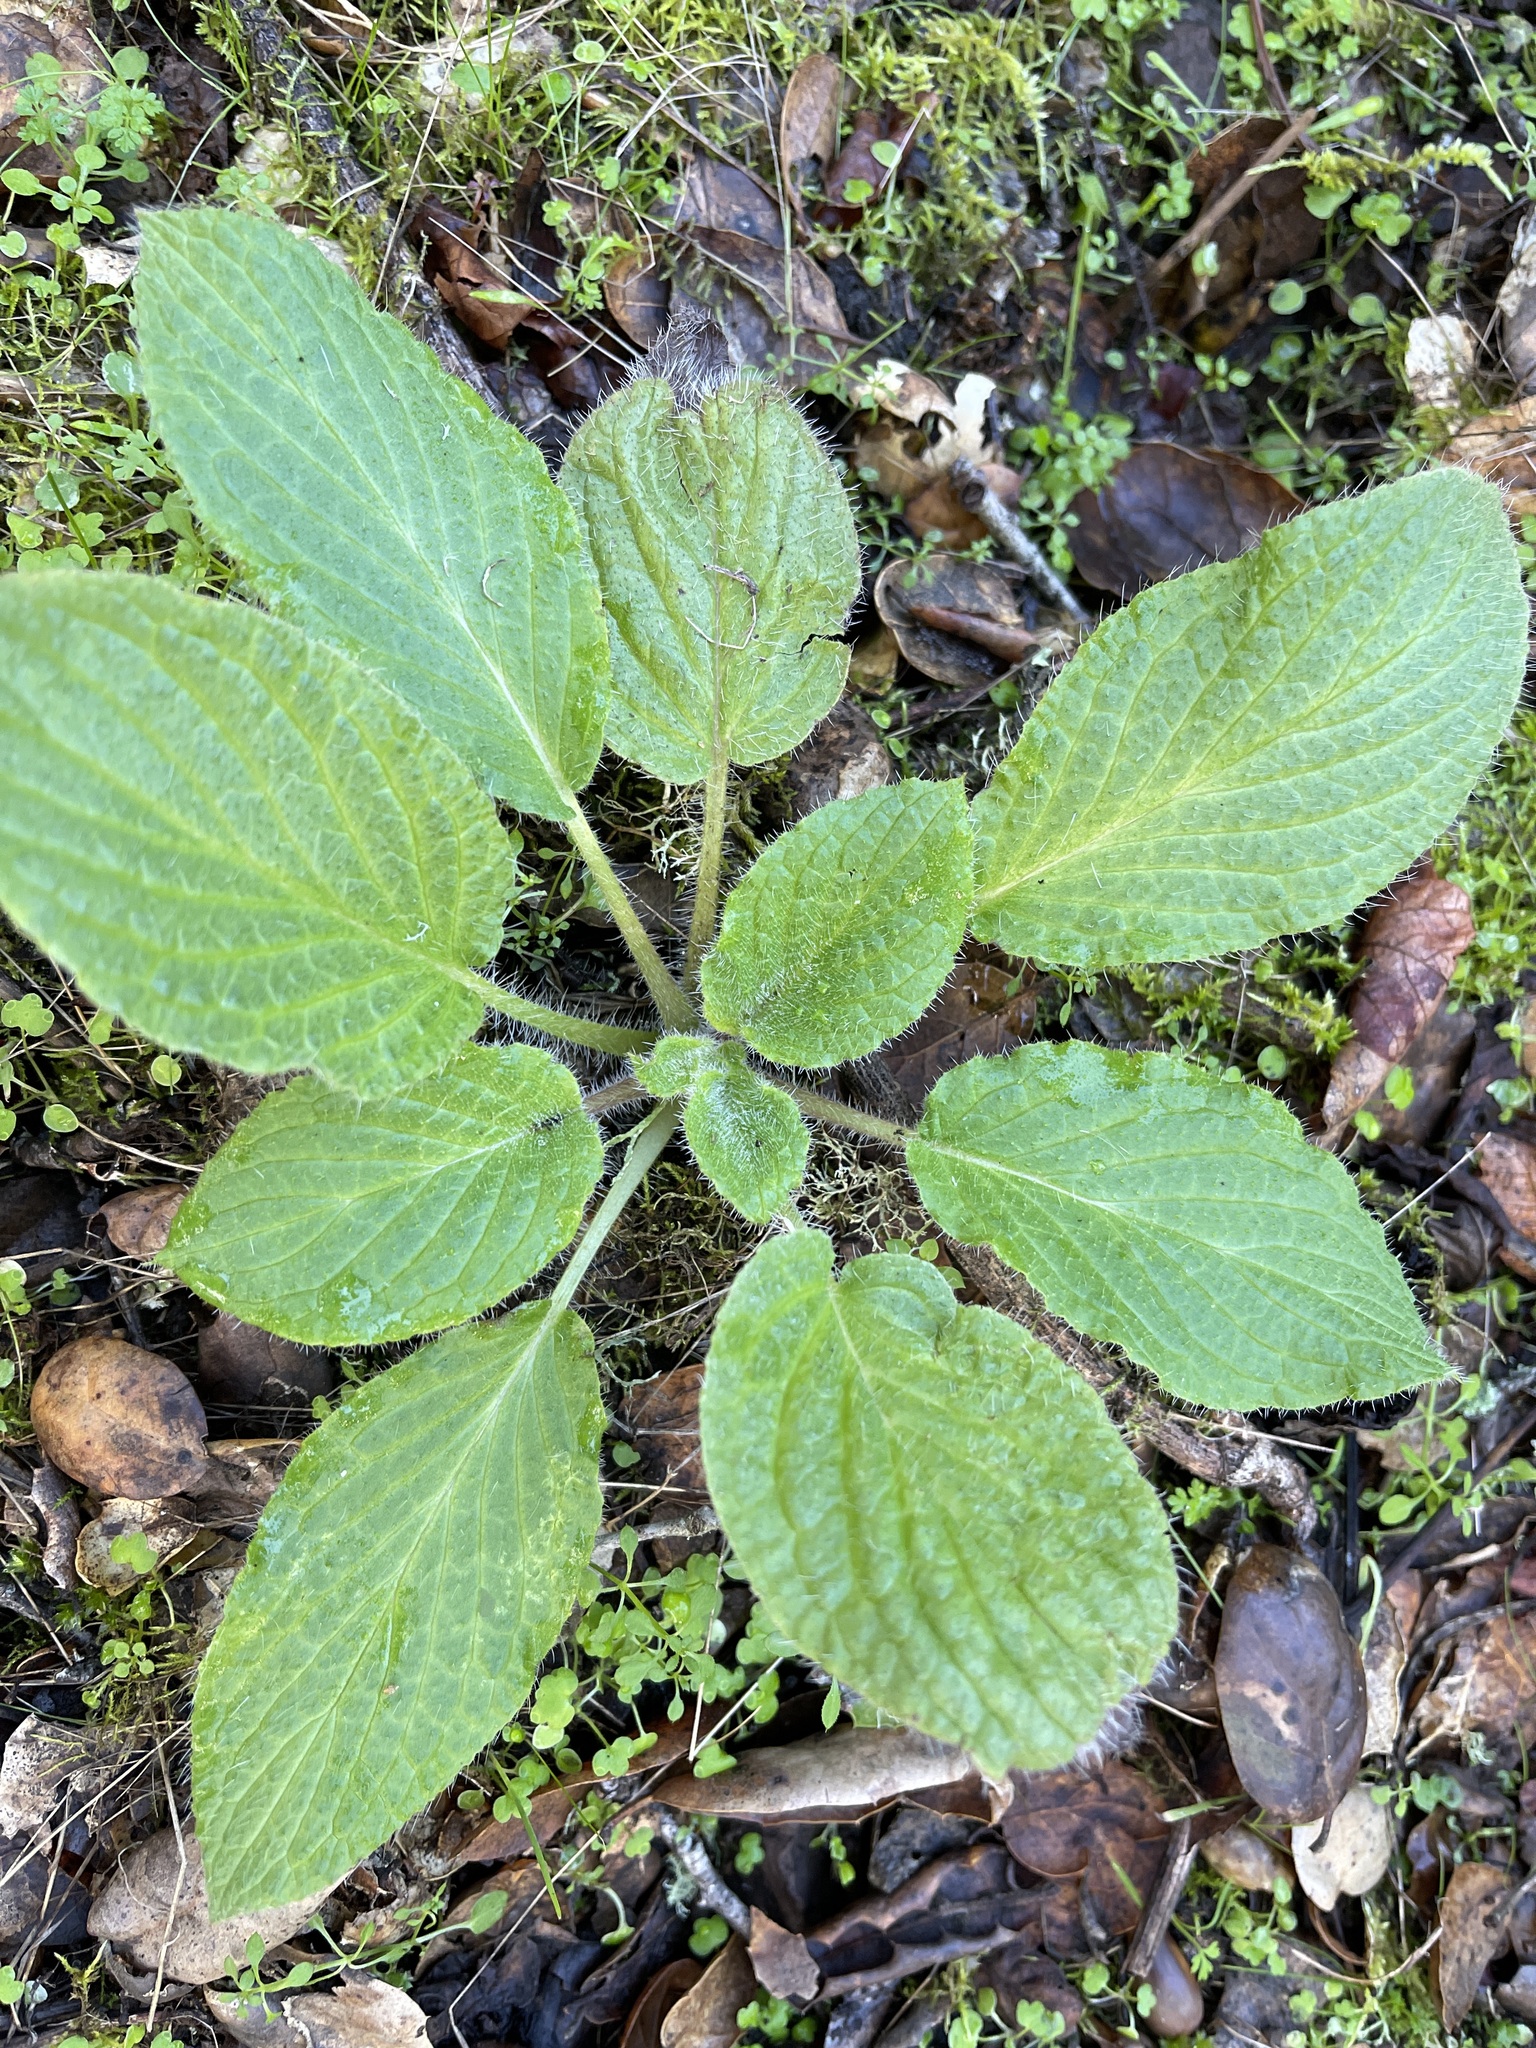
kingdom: Plantae
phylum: Tracheophyta
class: Magnoliopsida
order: Boraginales
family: Hydrophyllaceae
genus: Phacelia
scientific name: Phacelia nemoralis
